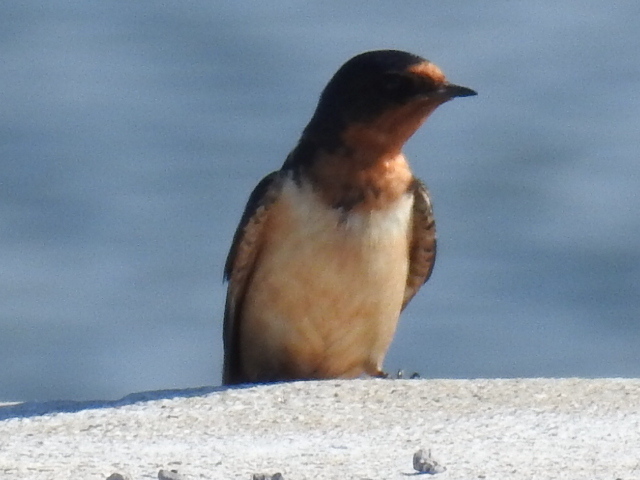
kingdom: Animalia
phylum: Chordata
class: Aves
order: Passeriformes
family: Hirundinidae
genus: Hirundo
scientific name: Hirundo rustica
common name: Barn swallow
